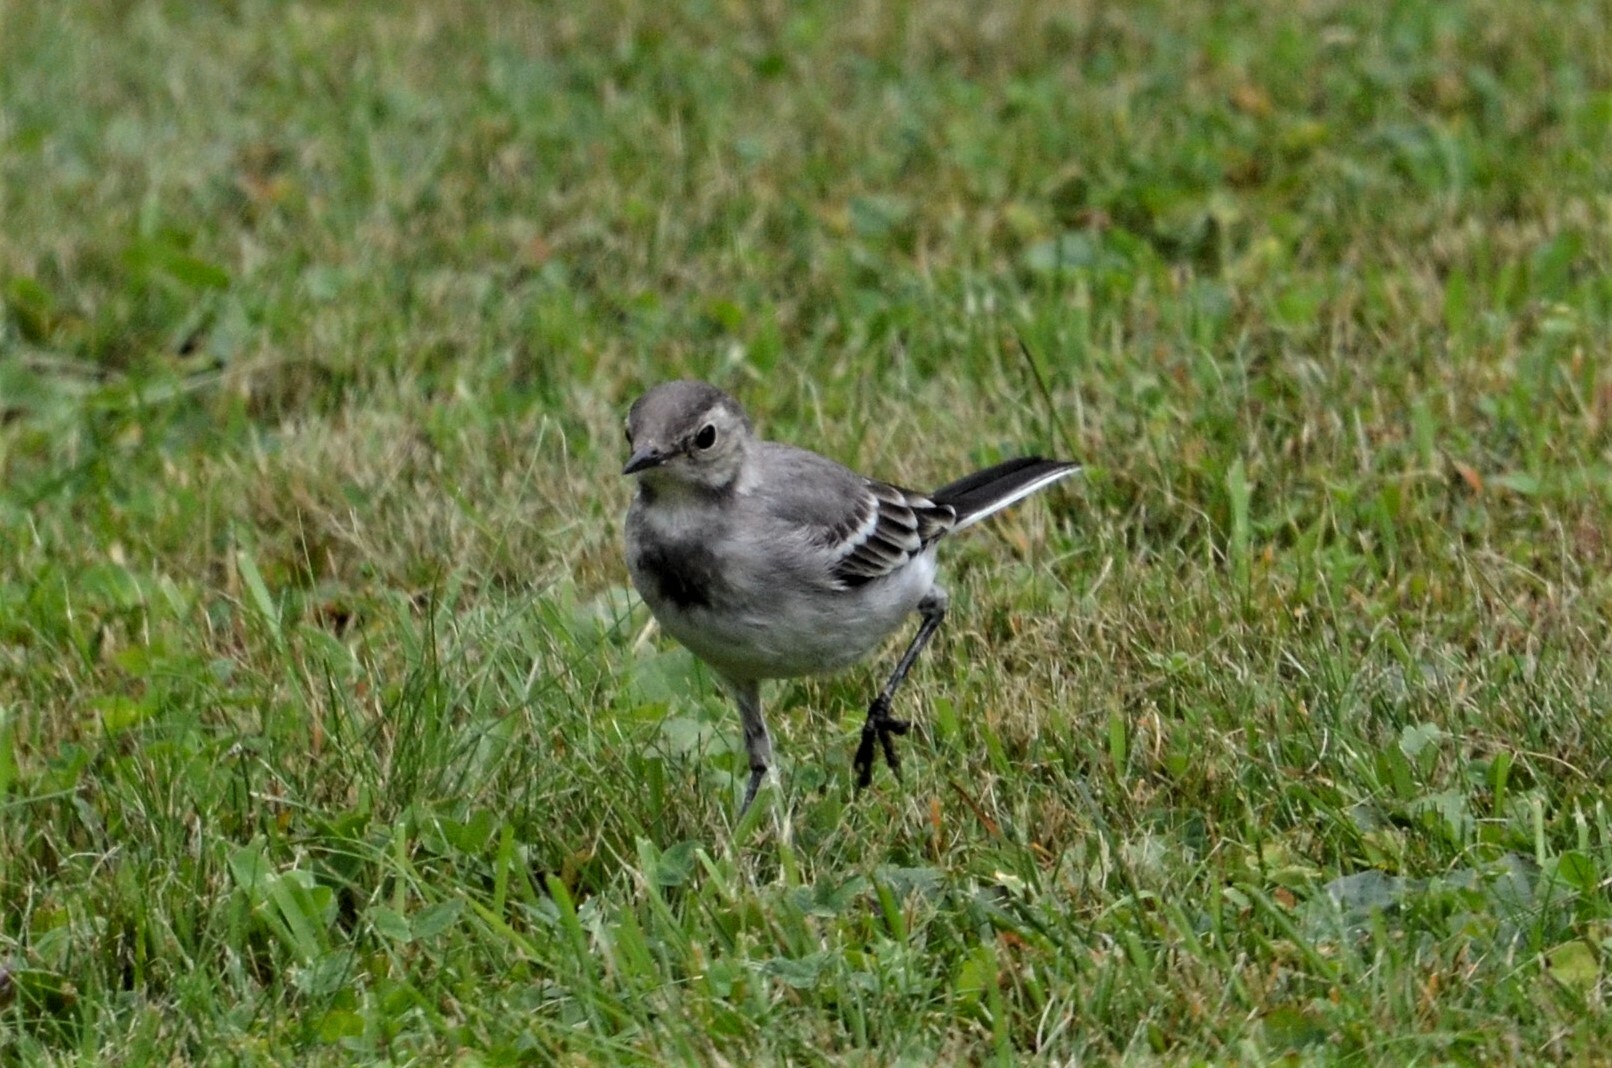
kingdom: Animalia
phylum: Chordata
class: Aves
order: Passeriformes
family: Motacillidae
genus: Motacilla
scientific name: Motacilla alba
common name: White wagtail
